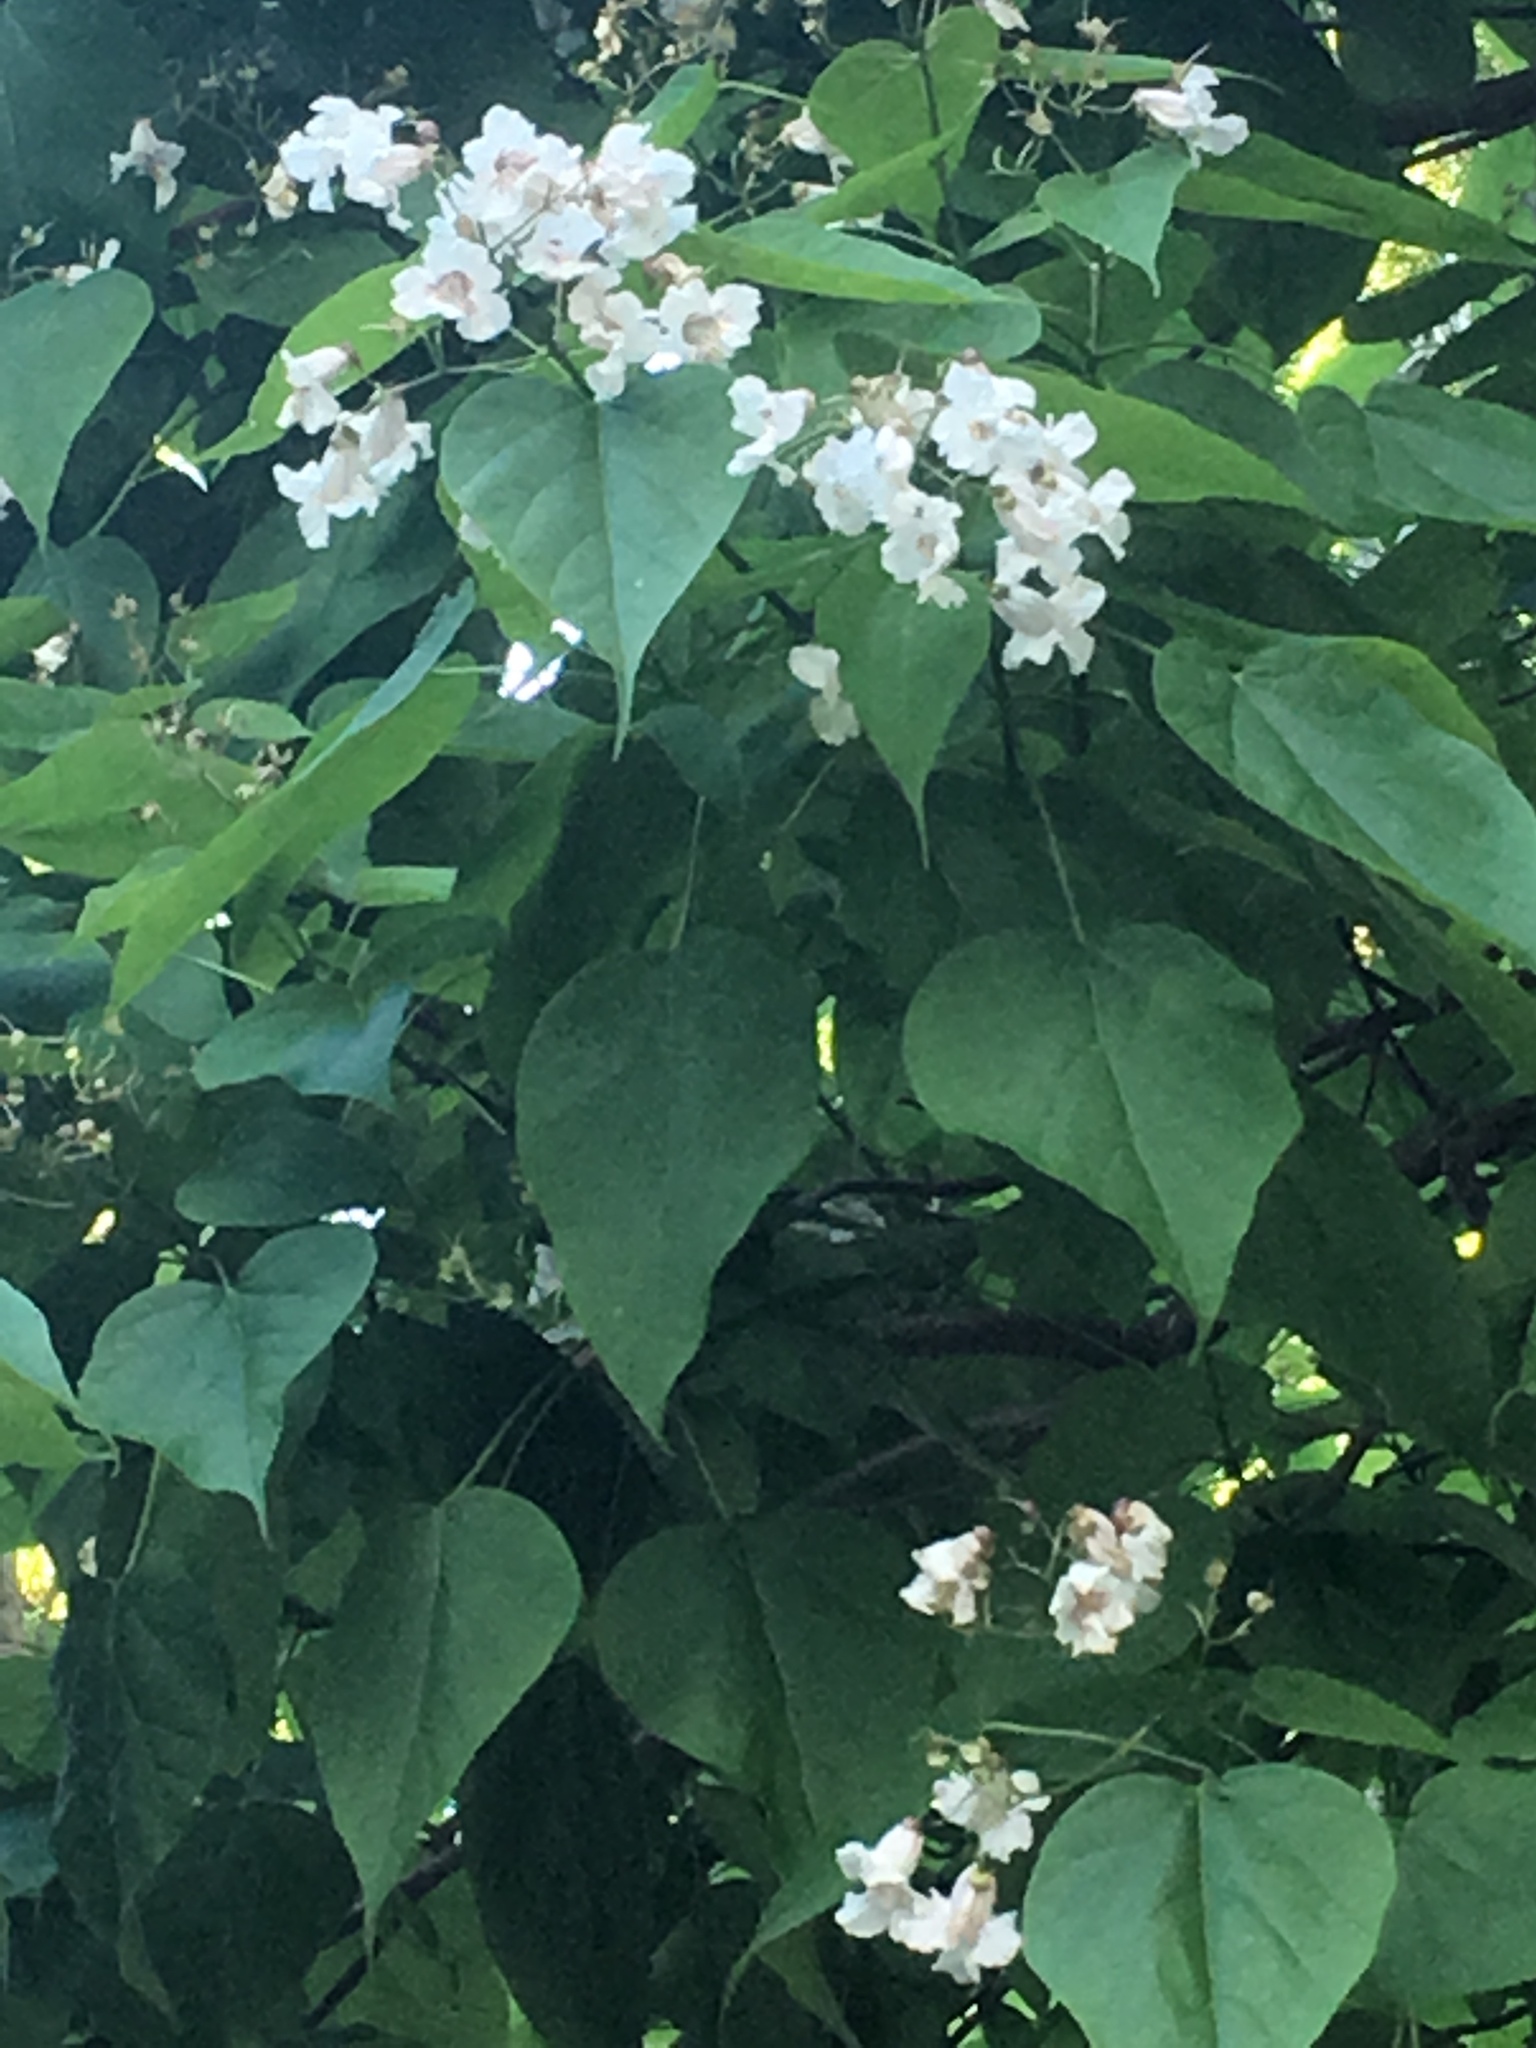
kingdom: Plantae
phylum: Tracheophyta
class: Magnoliopsida
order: Lamiales
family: Bignoniaceae
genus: Catalpa
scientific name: Catalpa speciosa
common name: Northern catalpa
